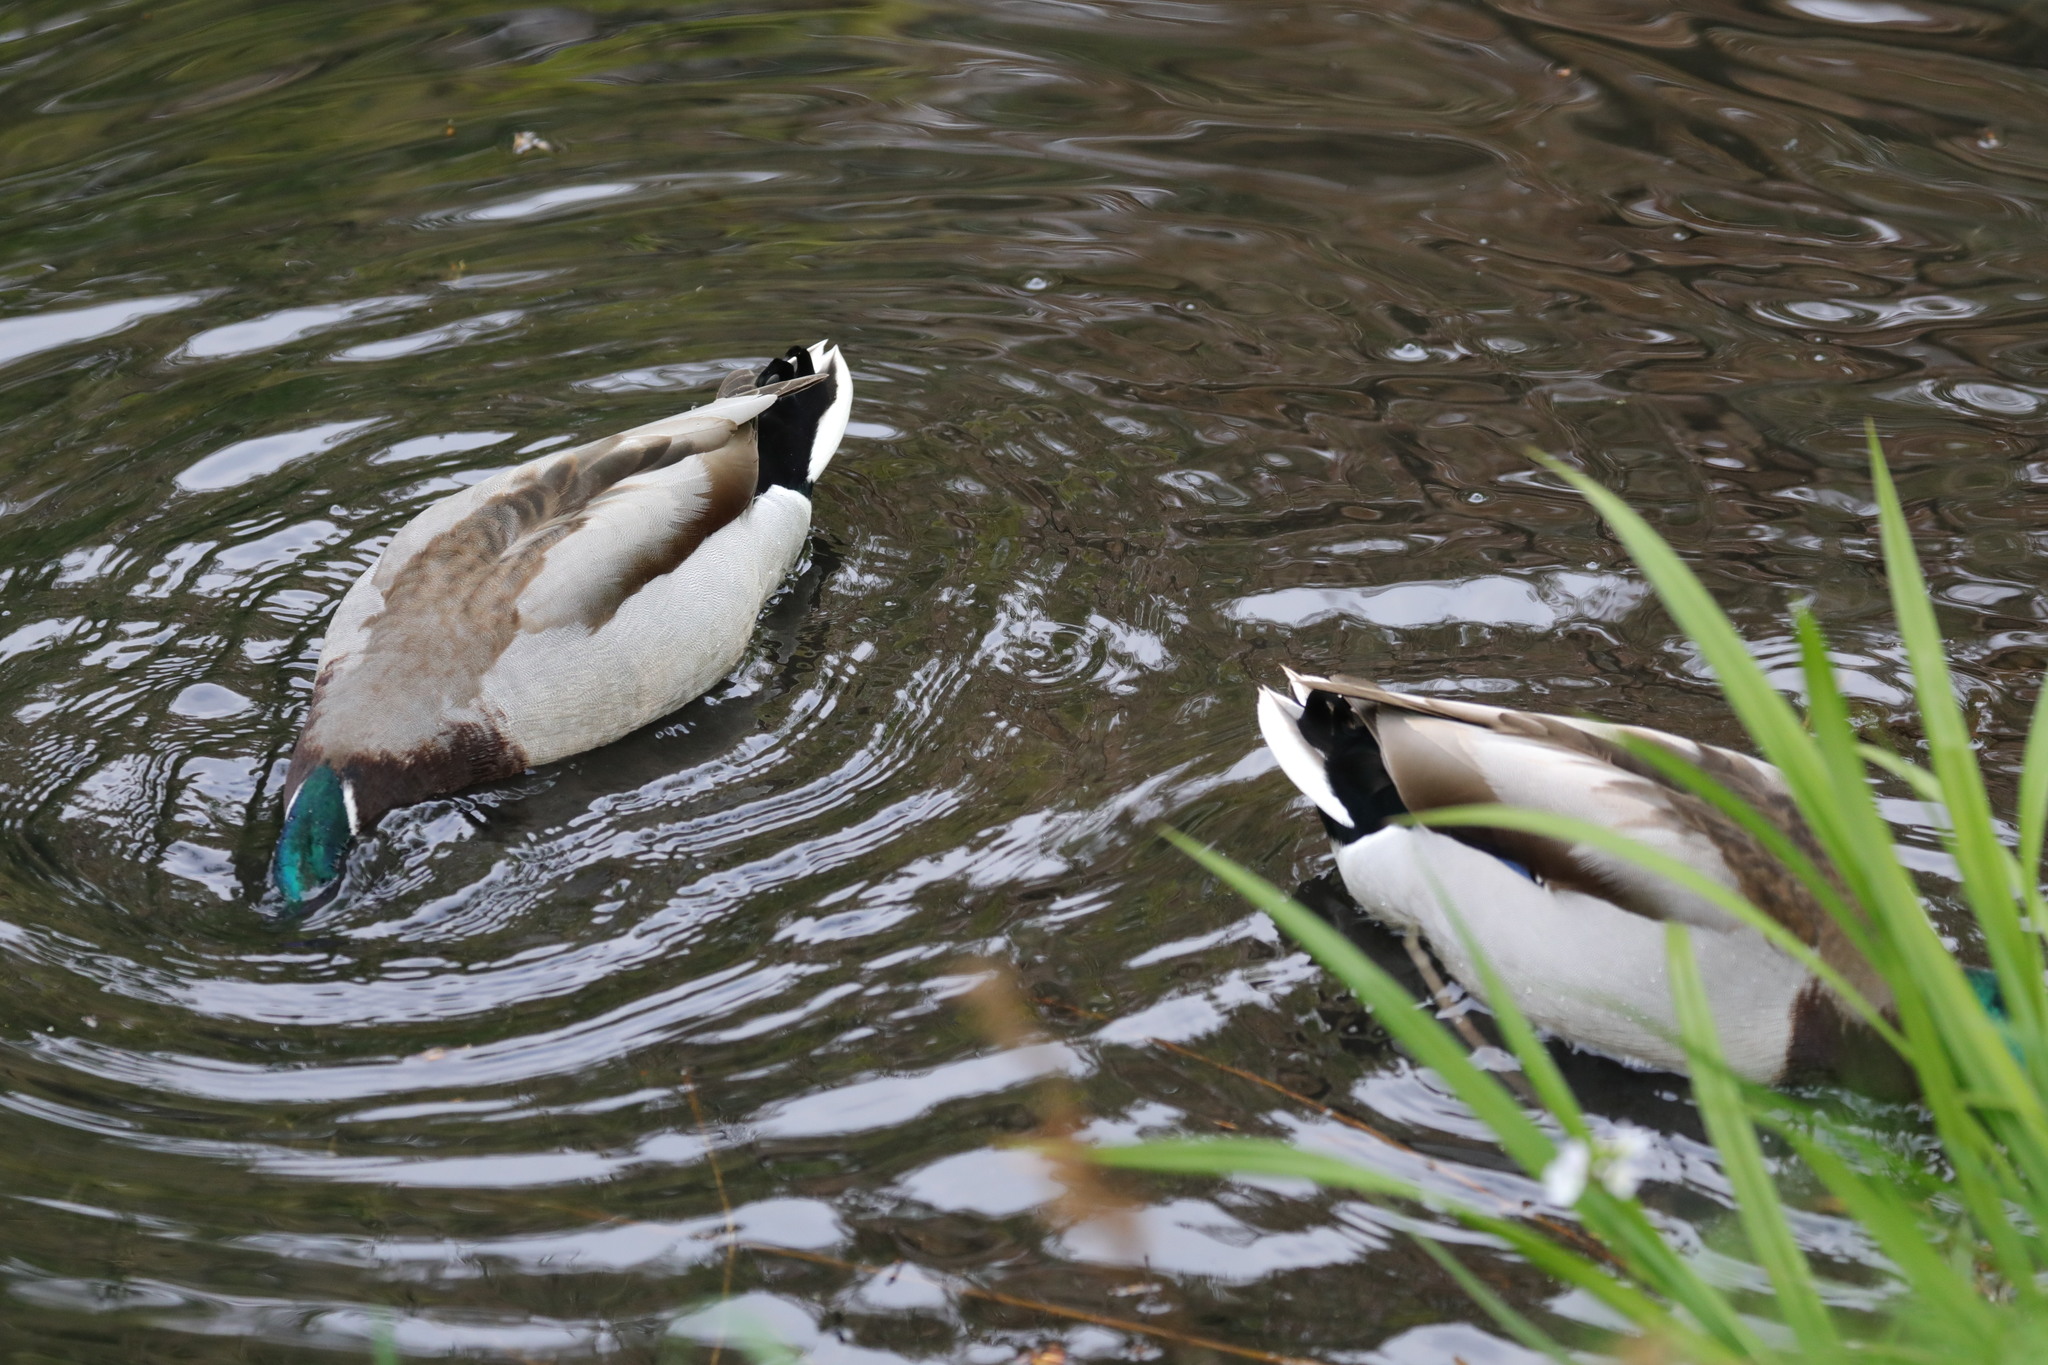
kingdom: Animalia
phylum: Chordata
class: Aves
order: Anseriformes
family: Anatidae
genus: Anas
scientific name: Anas platyrhynchos
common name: Mallard
